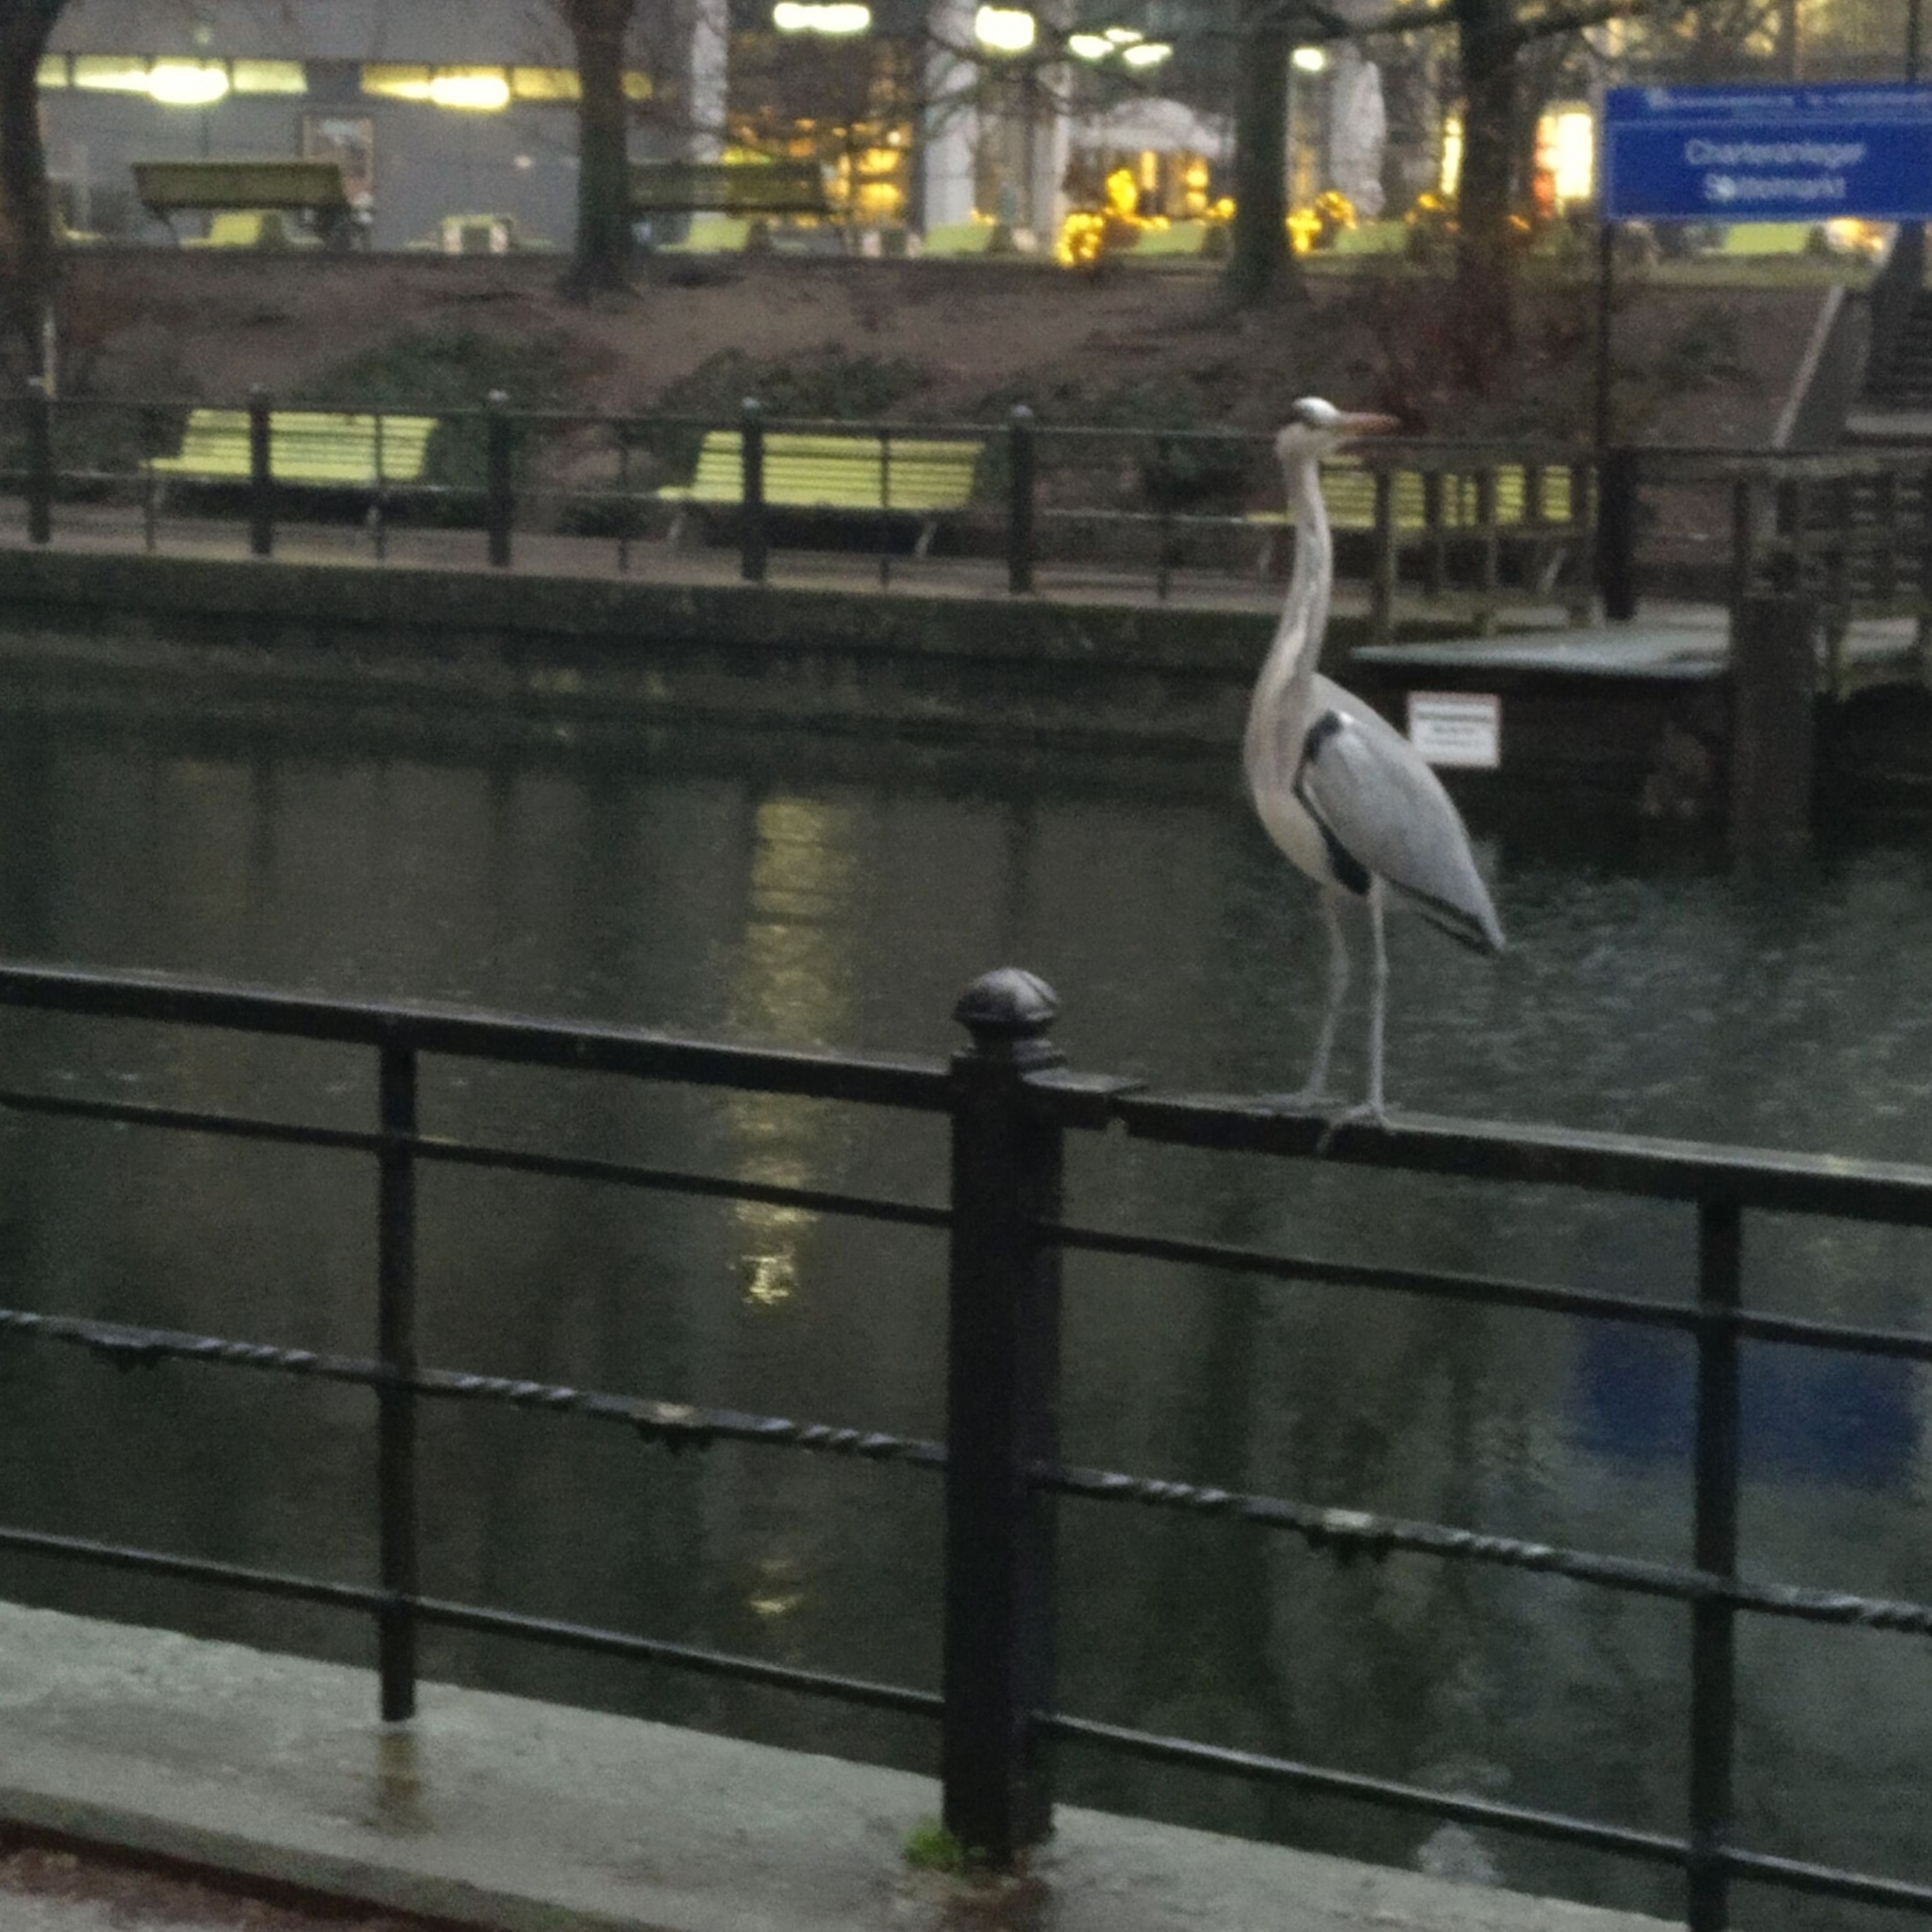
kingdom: Animalia
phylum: Chordata
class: Aves
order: Pelecaniformes
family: Ardeidae
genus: Ardea
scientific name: Ardea cinerea
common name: Grey heron
